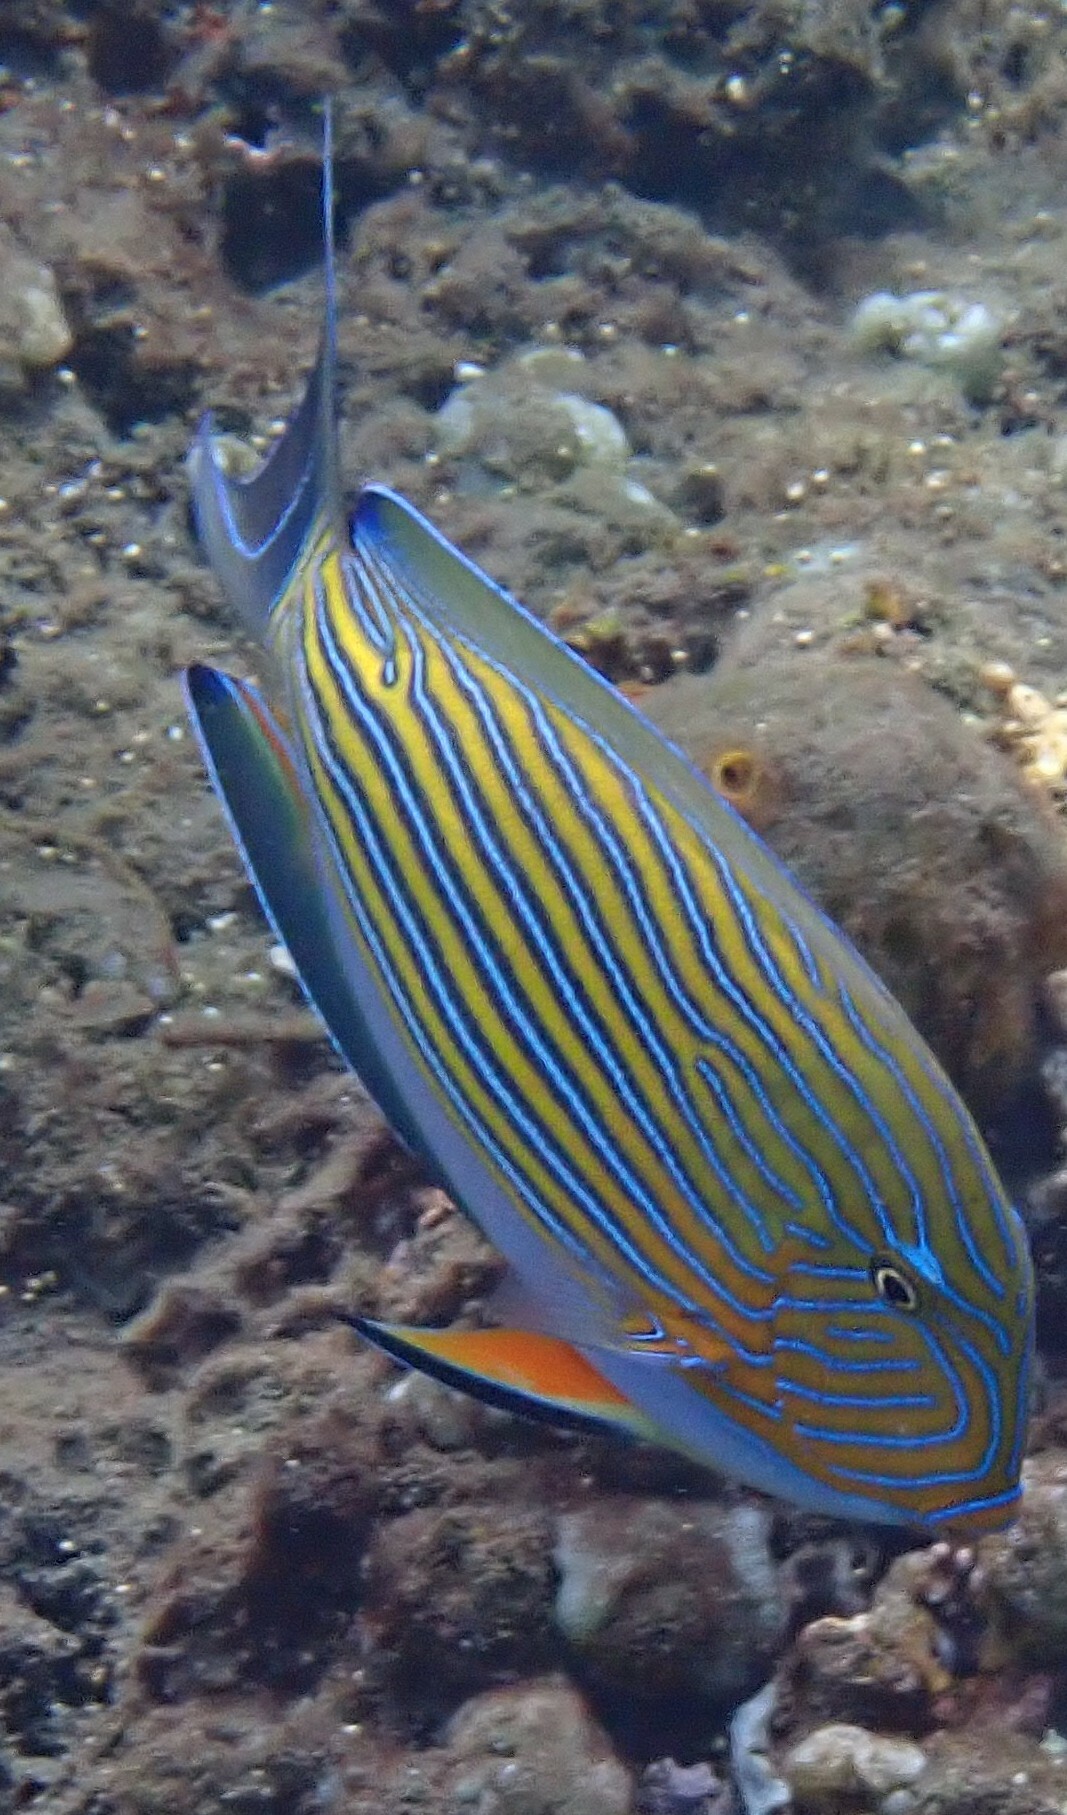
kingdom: Animalia
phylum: Chordata
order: Perciformes
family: Acanthuridae
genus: Acanthurus
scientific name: Acanthurus lineatus
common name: Striped surgeonfish
